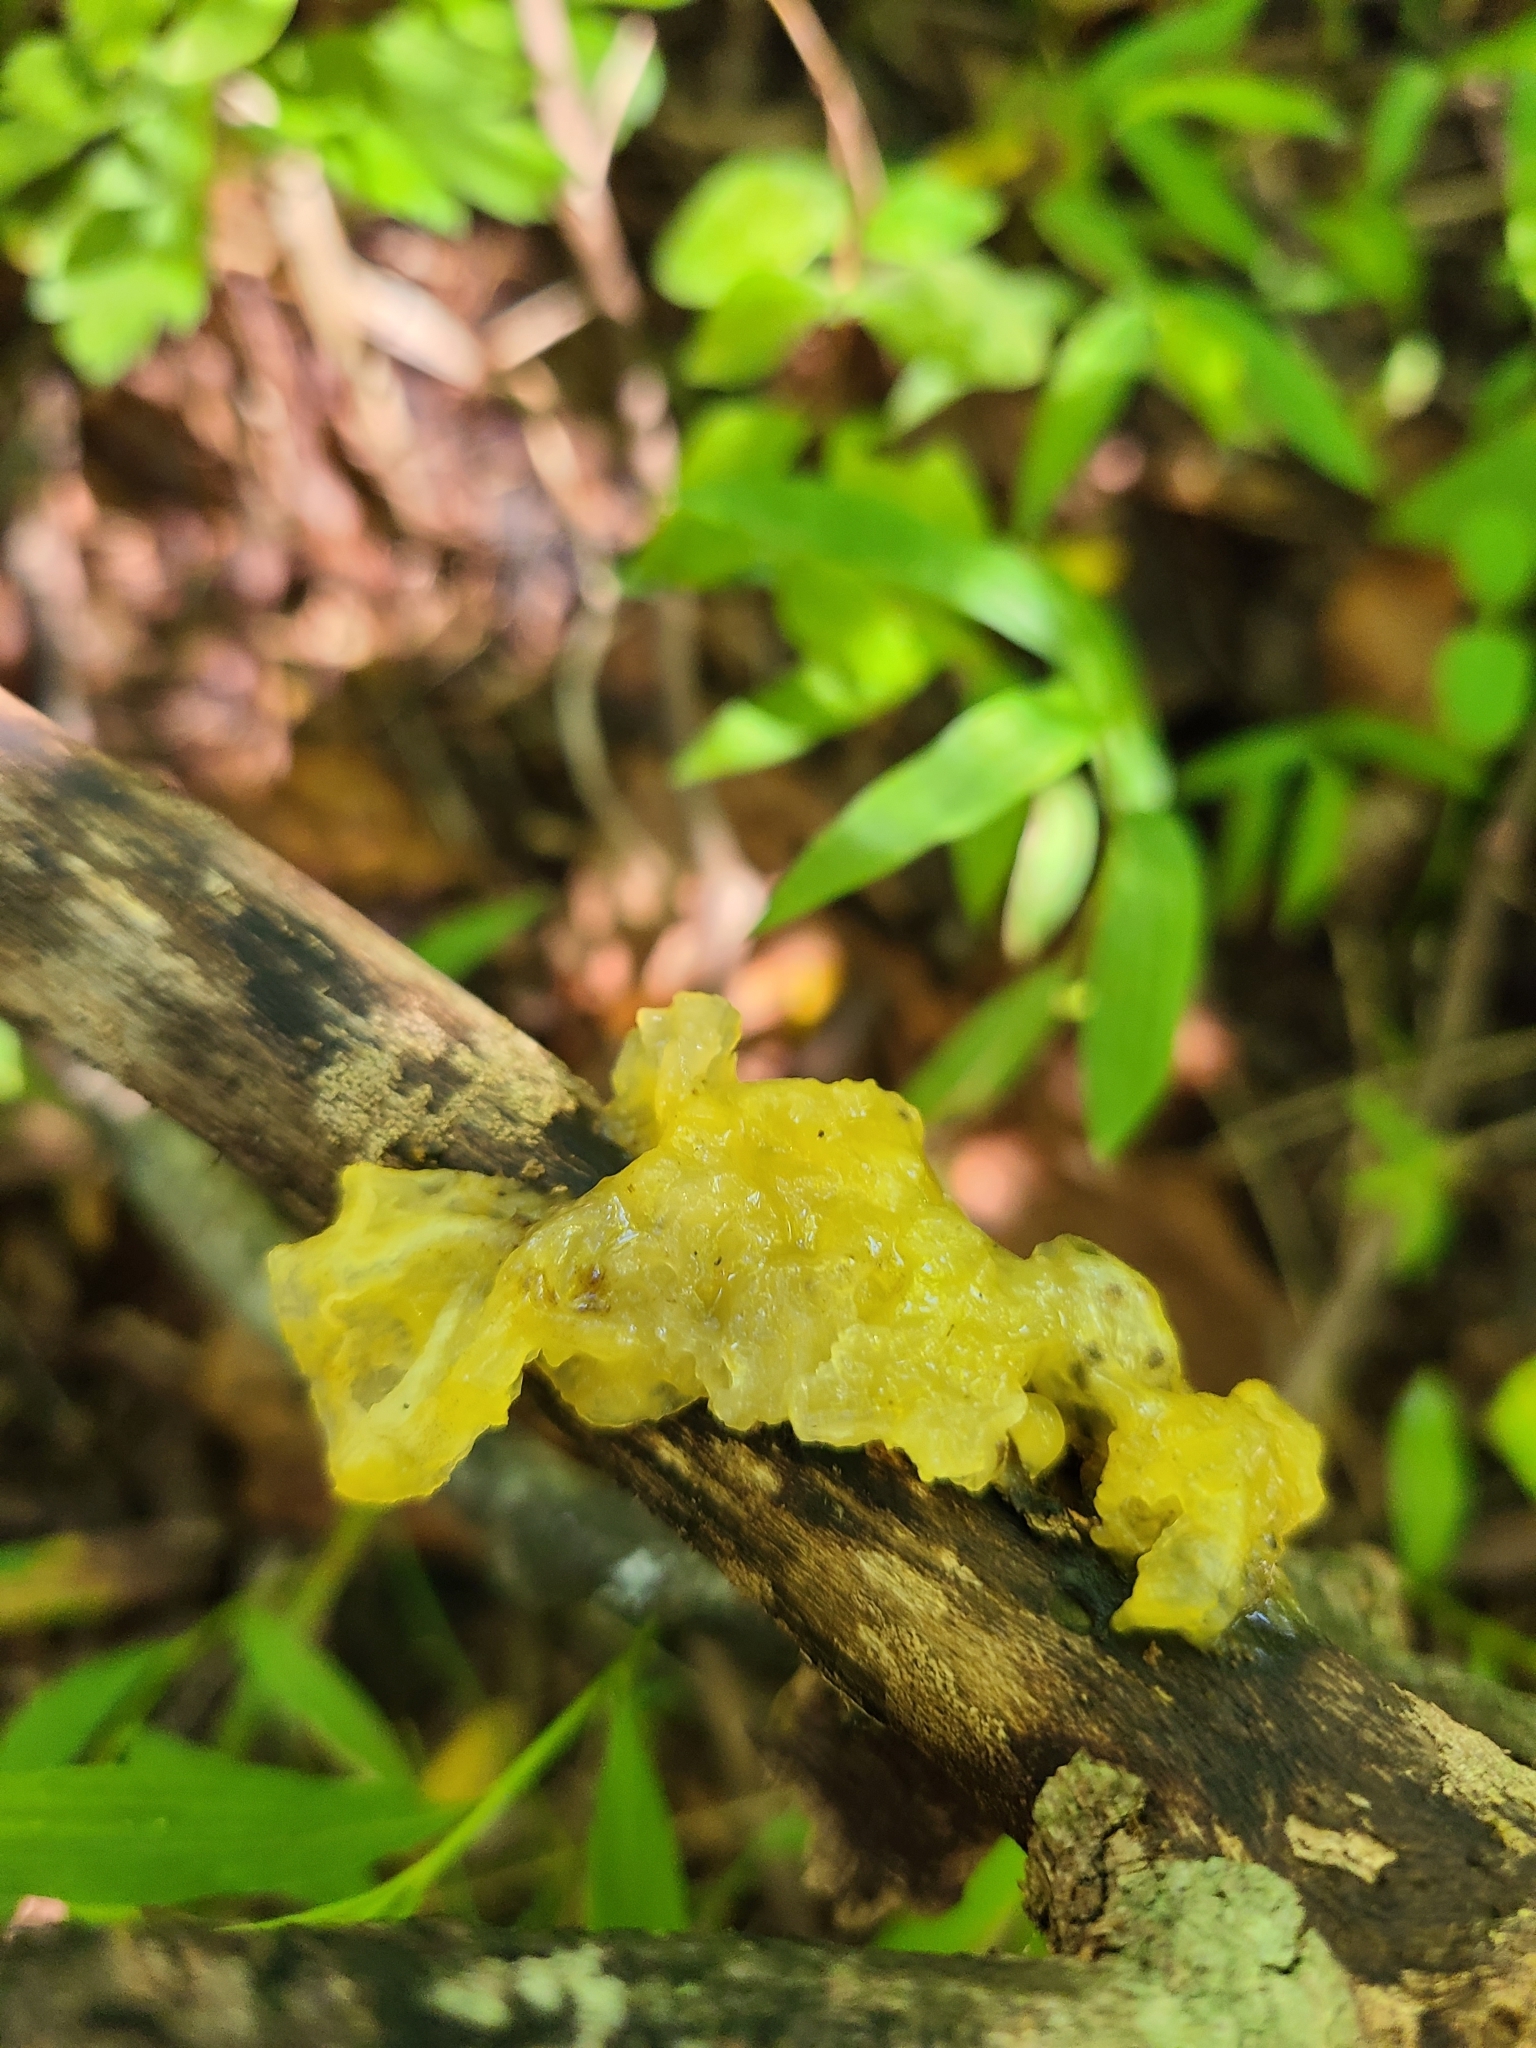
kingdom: Fungi
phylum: Basidiomycota
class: Tremellomycetes
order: Tremellales
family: Tremellaceae
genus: Tremella
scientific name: Tremella mesenterica
